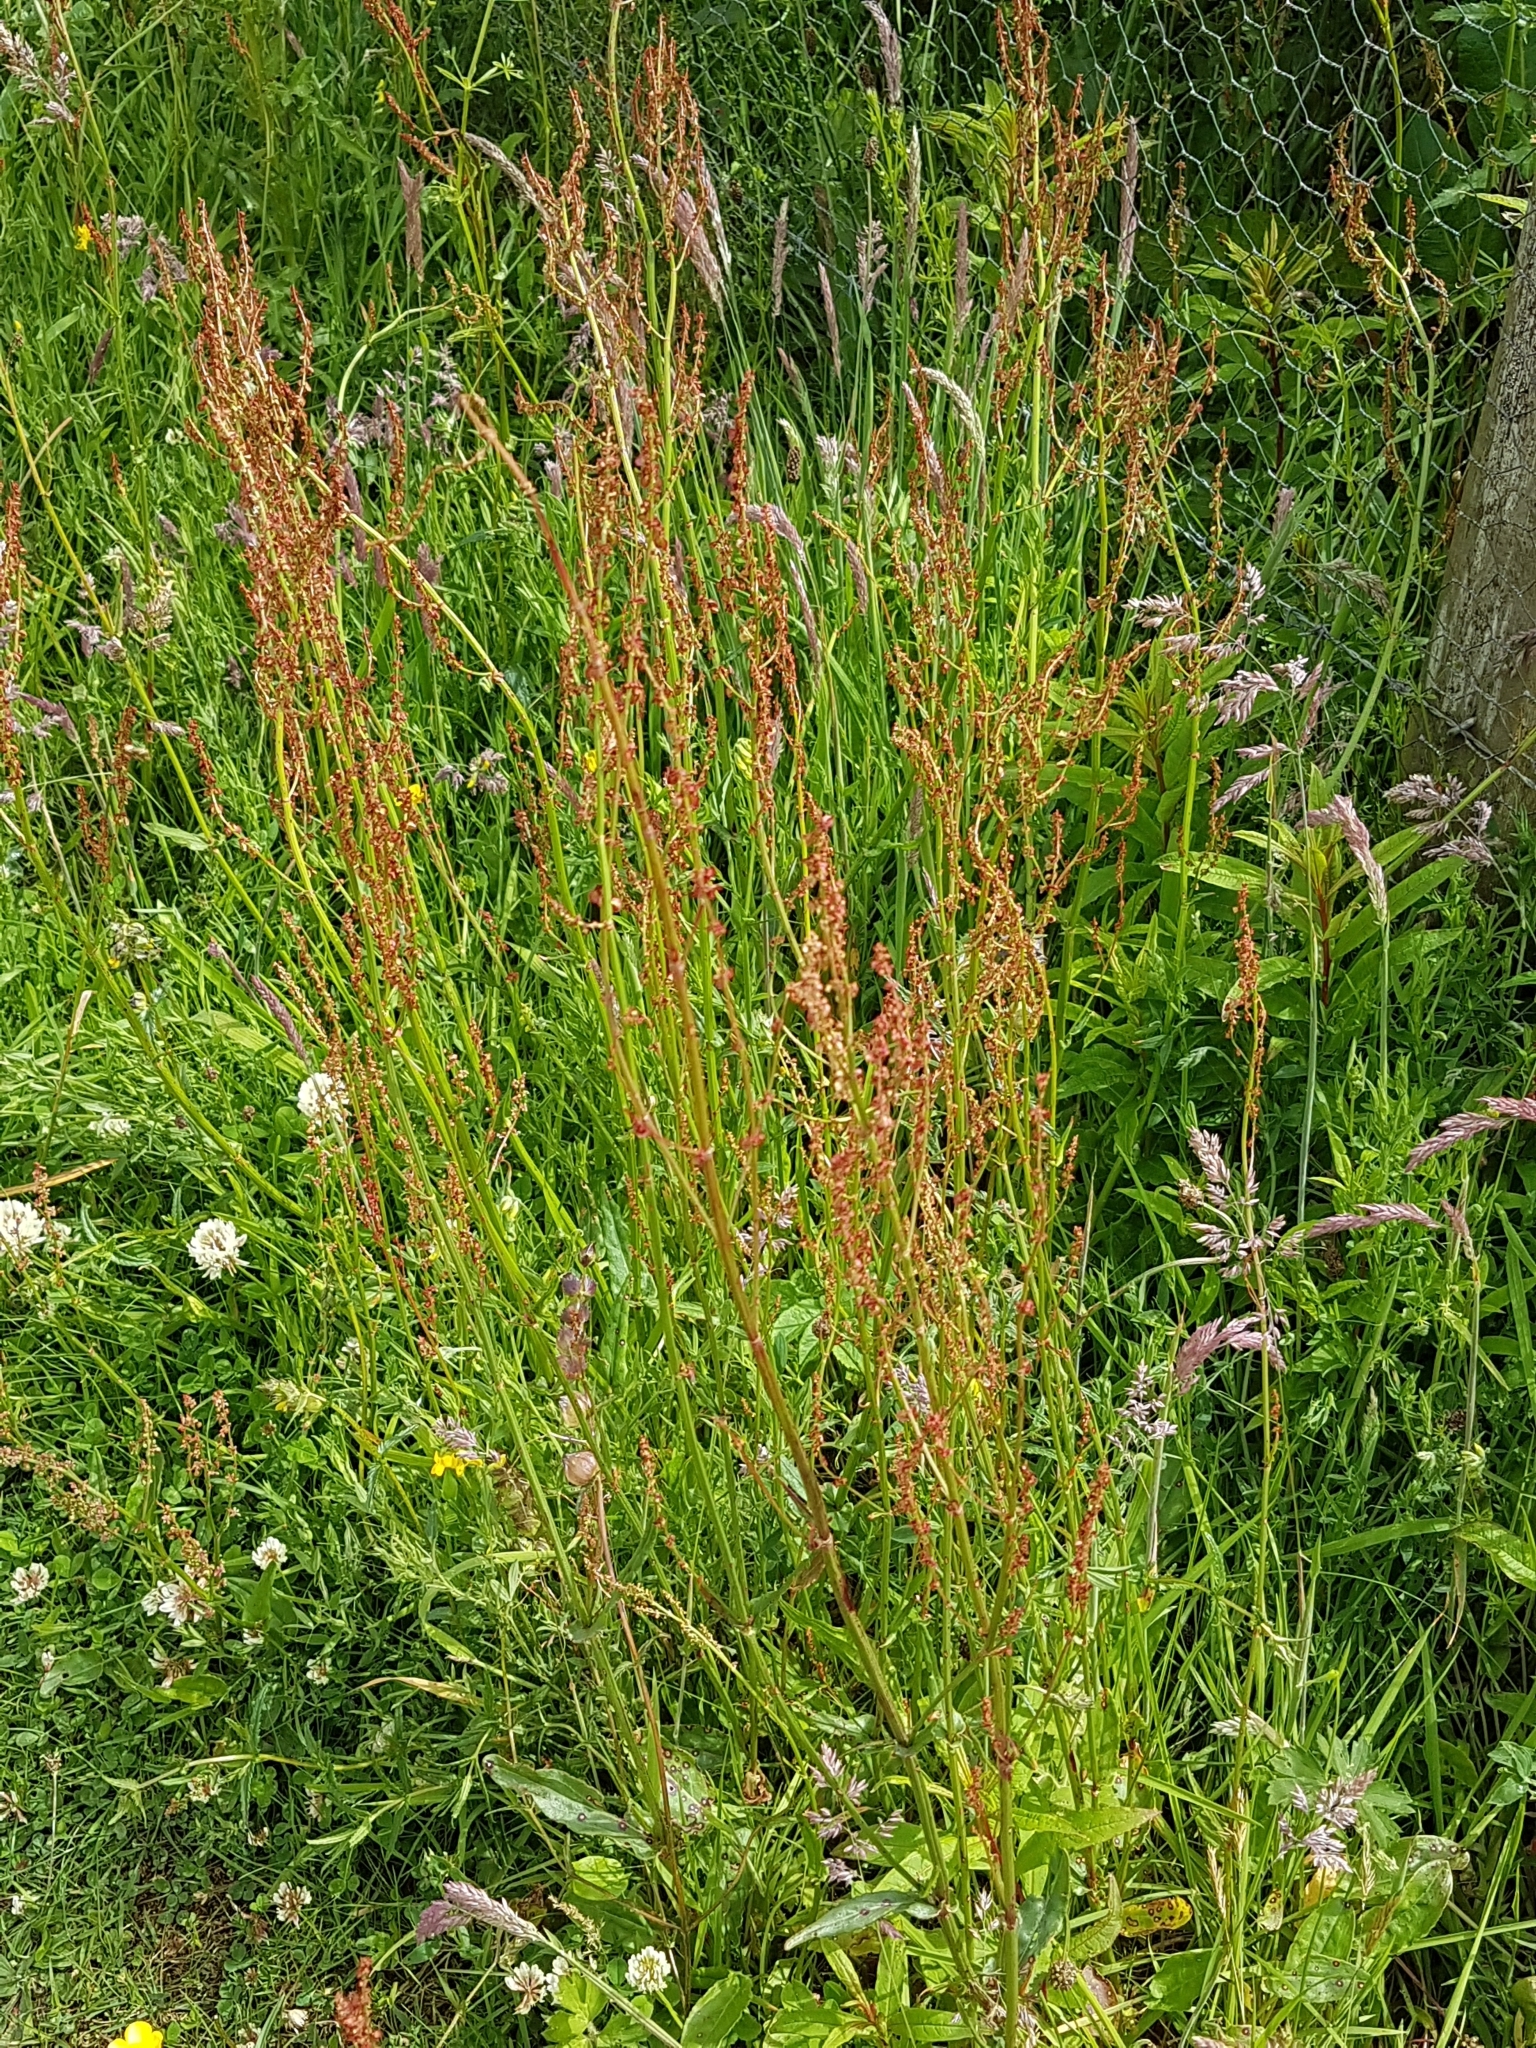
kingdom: Plantae
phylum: Tracheophyta
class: Magnoliopsida
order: Caryophyllales
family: Polygonaceae
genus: Rumex
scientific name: Rumex acetosa
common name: Garden sorrel
